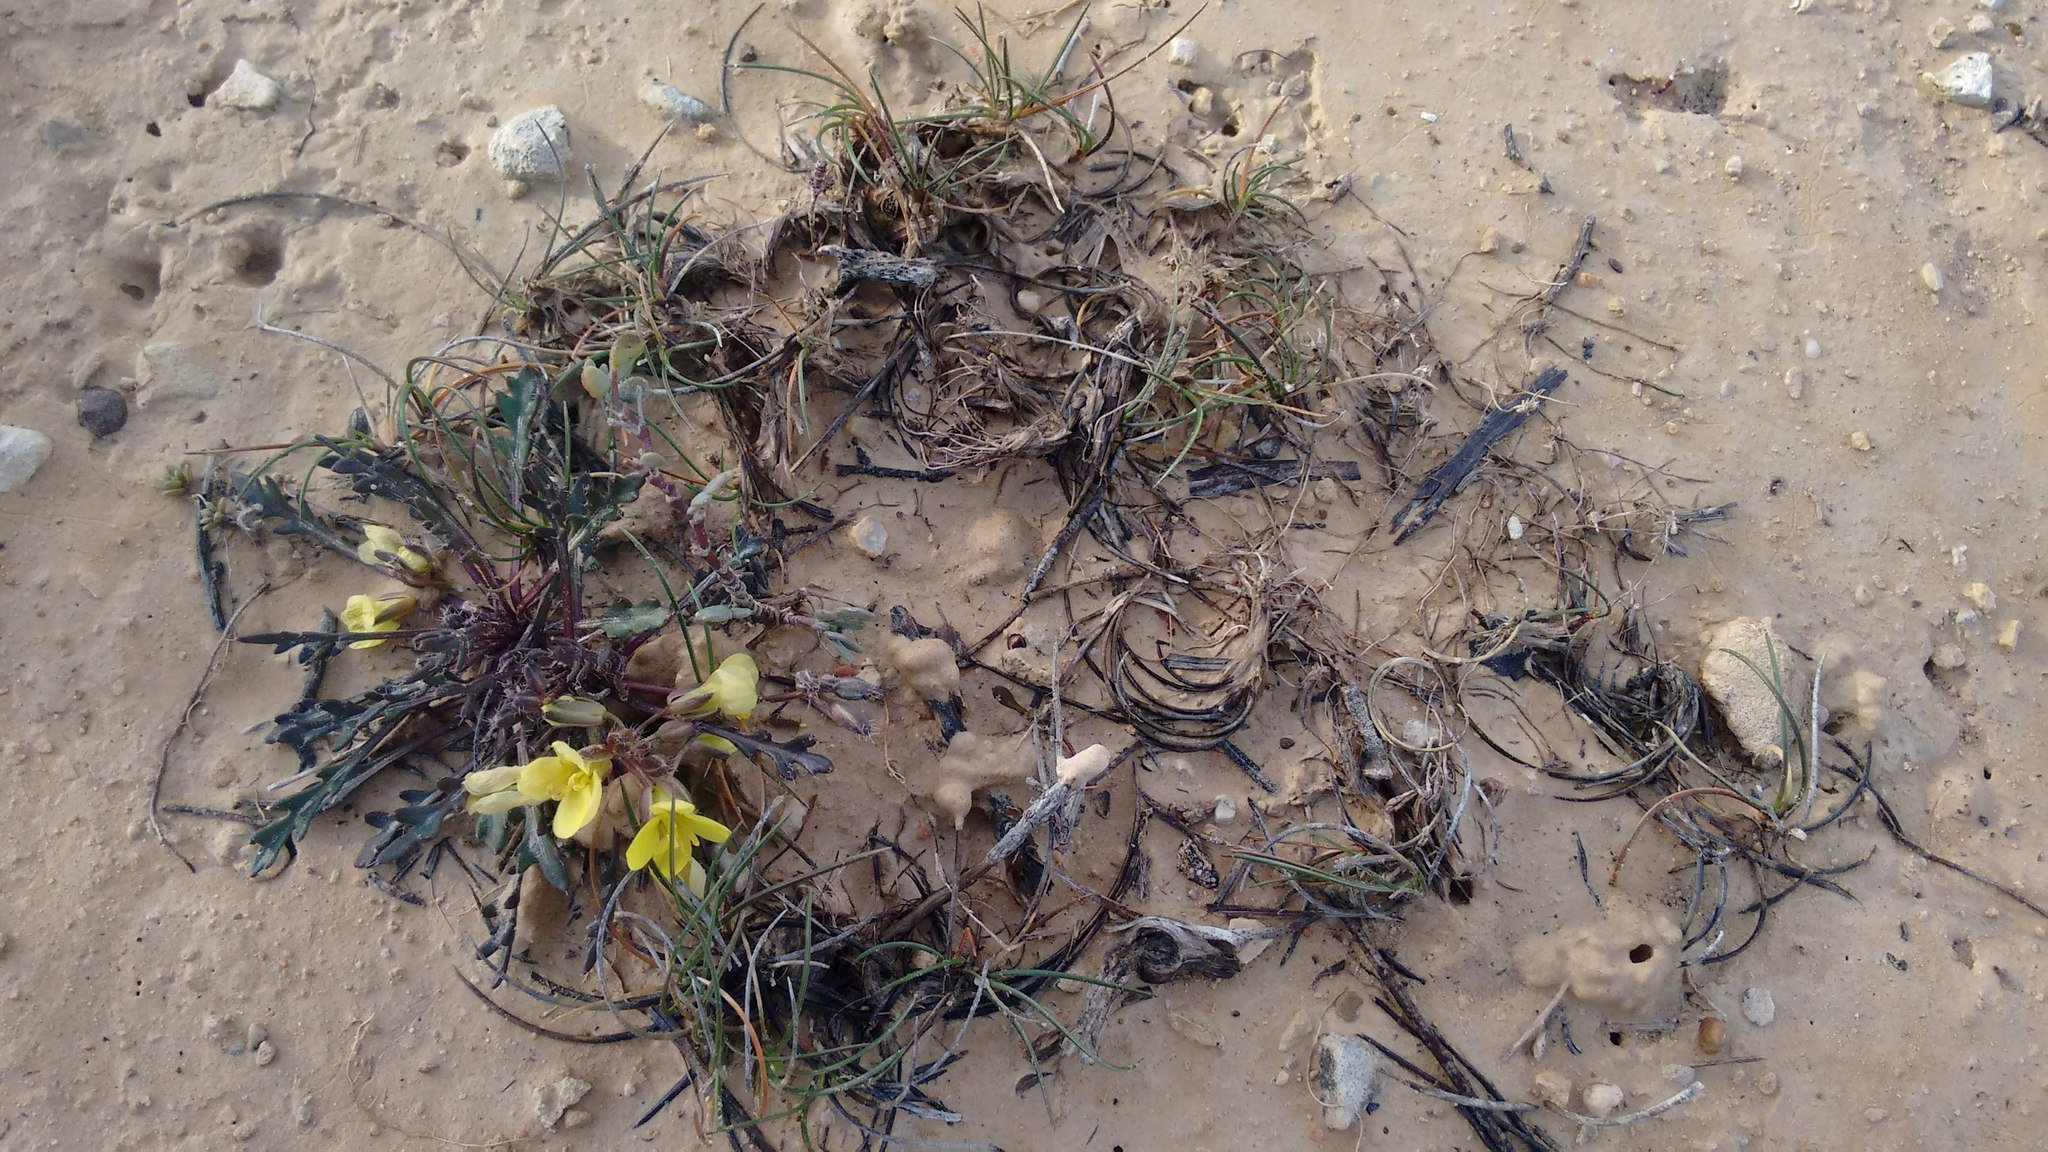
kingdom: Plantae
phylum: Tracheophyta
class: Magnoliopsida
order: Brassicales
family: Brassicaceae
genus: Brassica
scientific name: Brassica repanda
